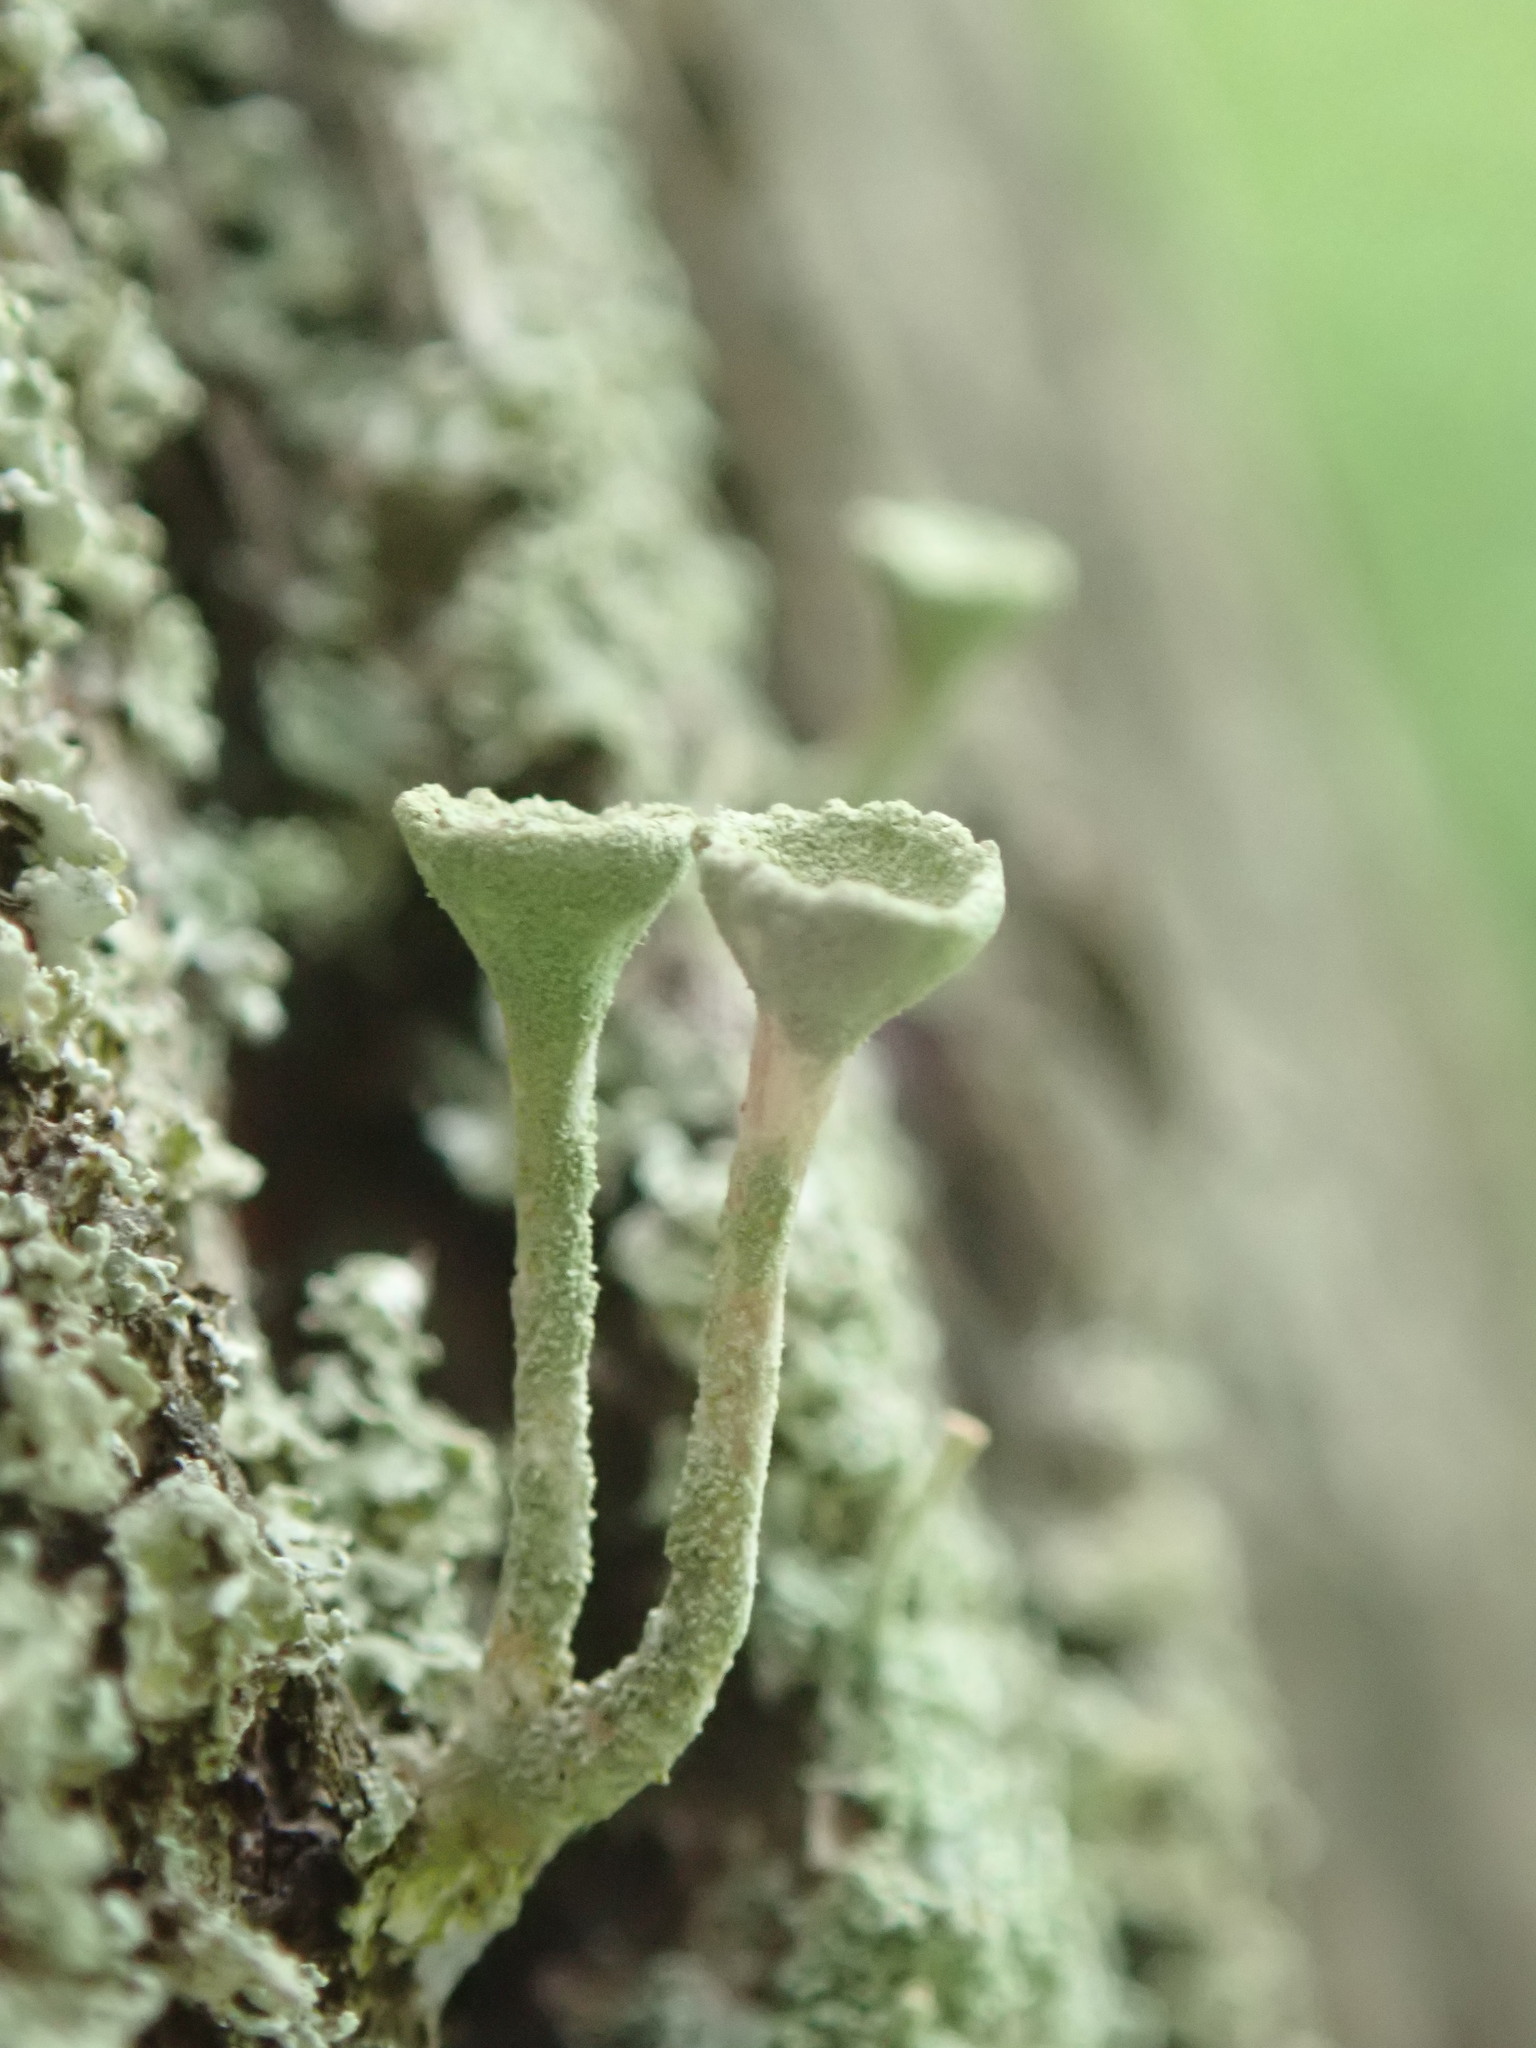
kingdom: Fungi
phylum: Ascomycota
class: Lecanoromycetes
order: Lecanorales
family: Cladoniaceae
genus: Cladonia
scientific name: Cladonia fimbriata
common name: Powdered trumpet lichen
